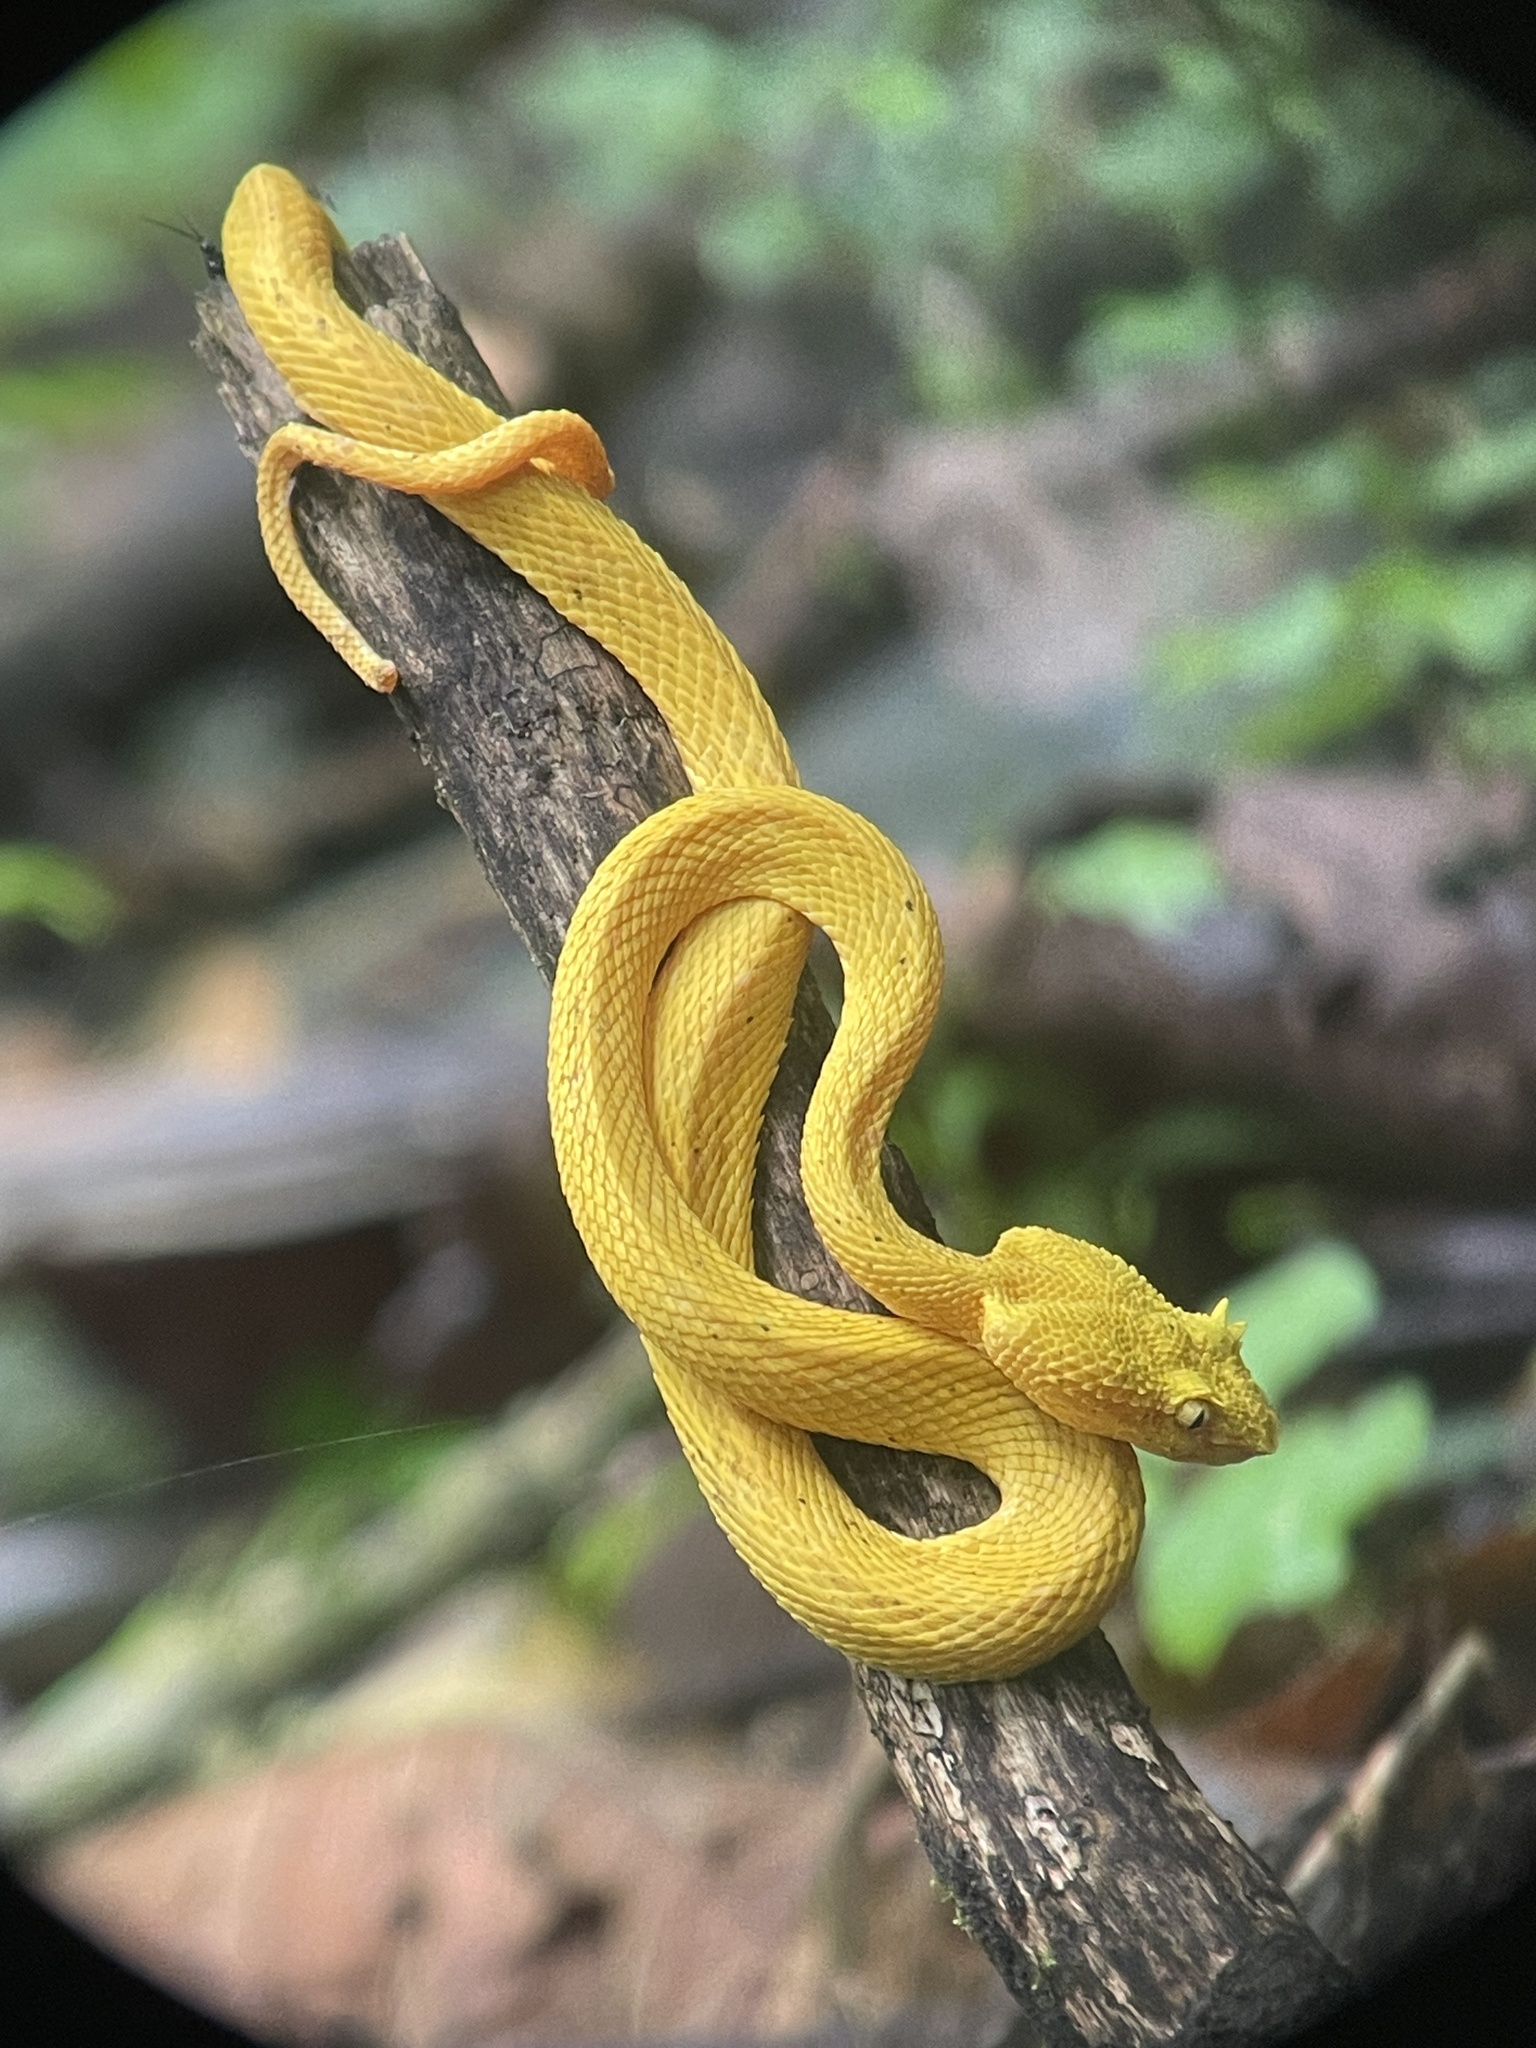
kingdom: Animalia
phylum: Chordata
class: Squamata
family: Viperidae
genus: Bothriechis
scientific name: Bothriechis schlegelii
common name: Eyelash viper
